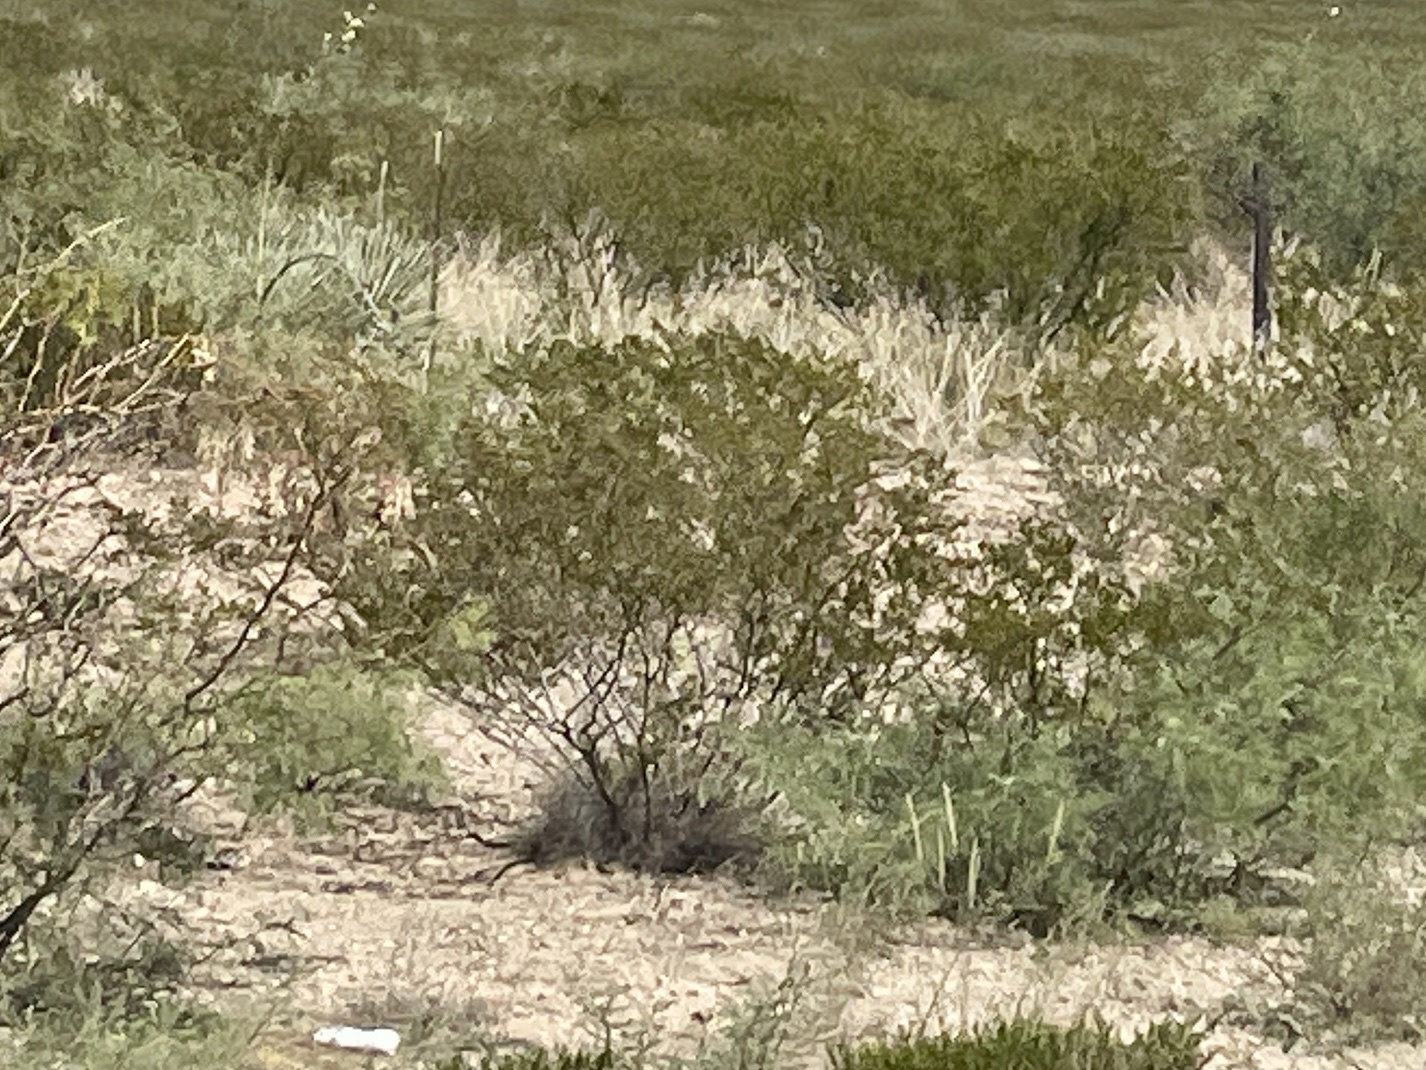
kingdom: Plantae
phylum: Tracheophyta
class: Magnoliopsida
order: Zygophyllales
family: Zygophyllaceae
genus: Larrea
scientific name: Larrea tridentata
